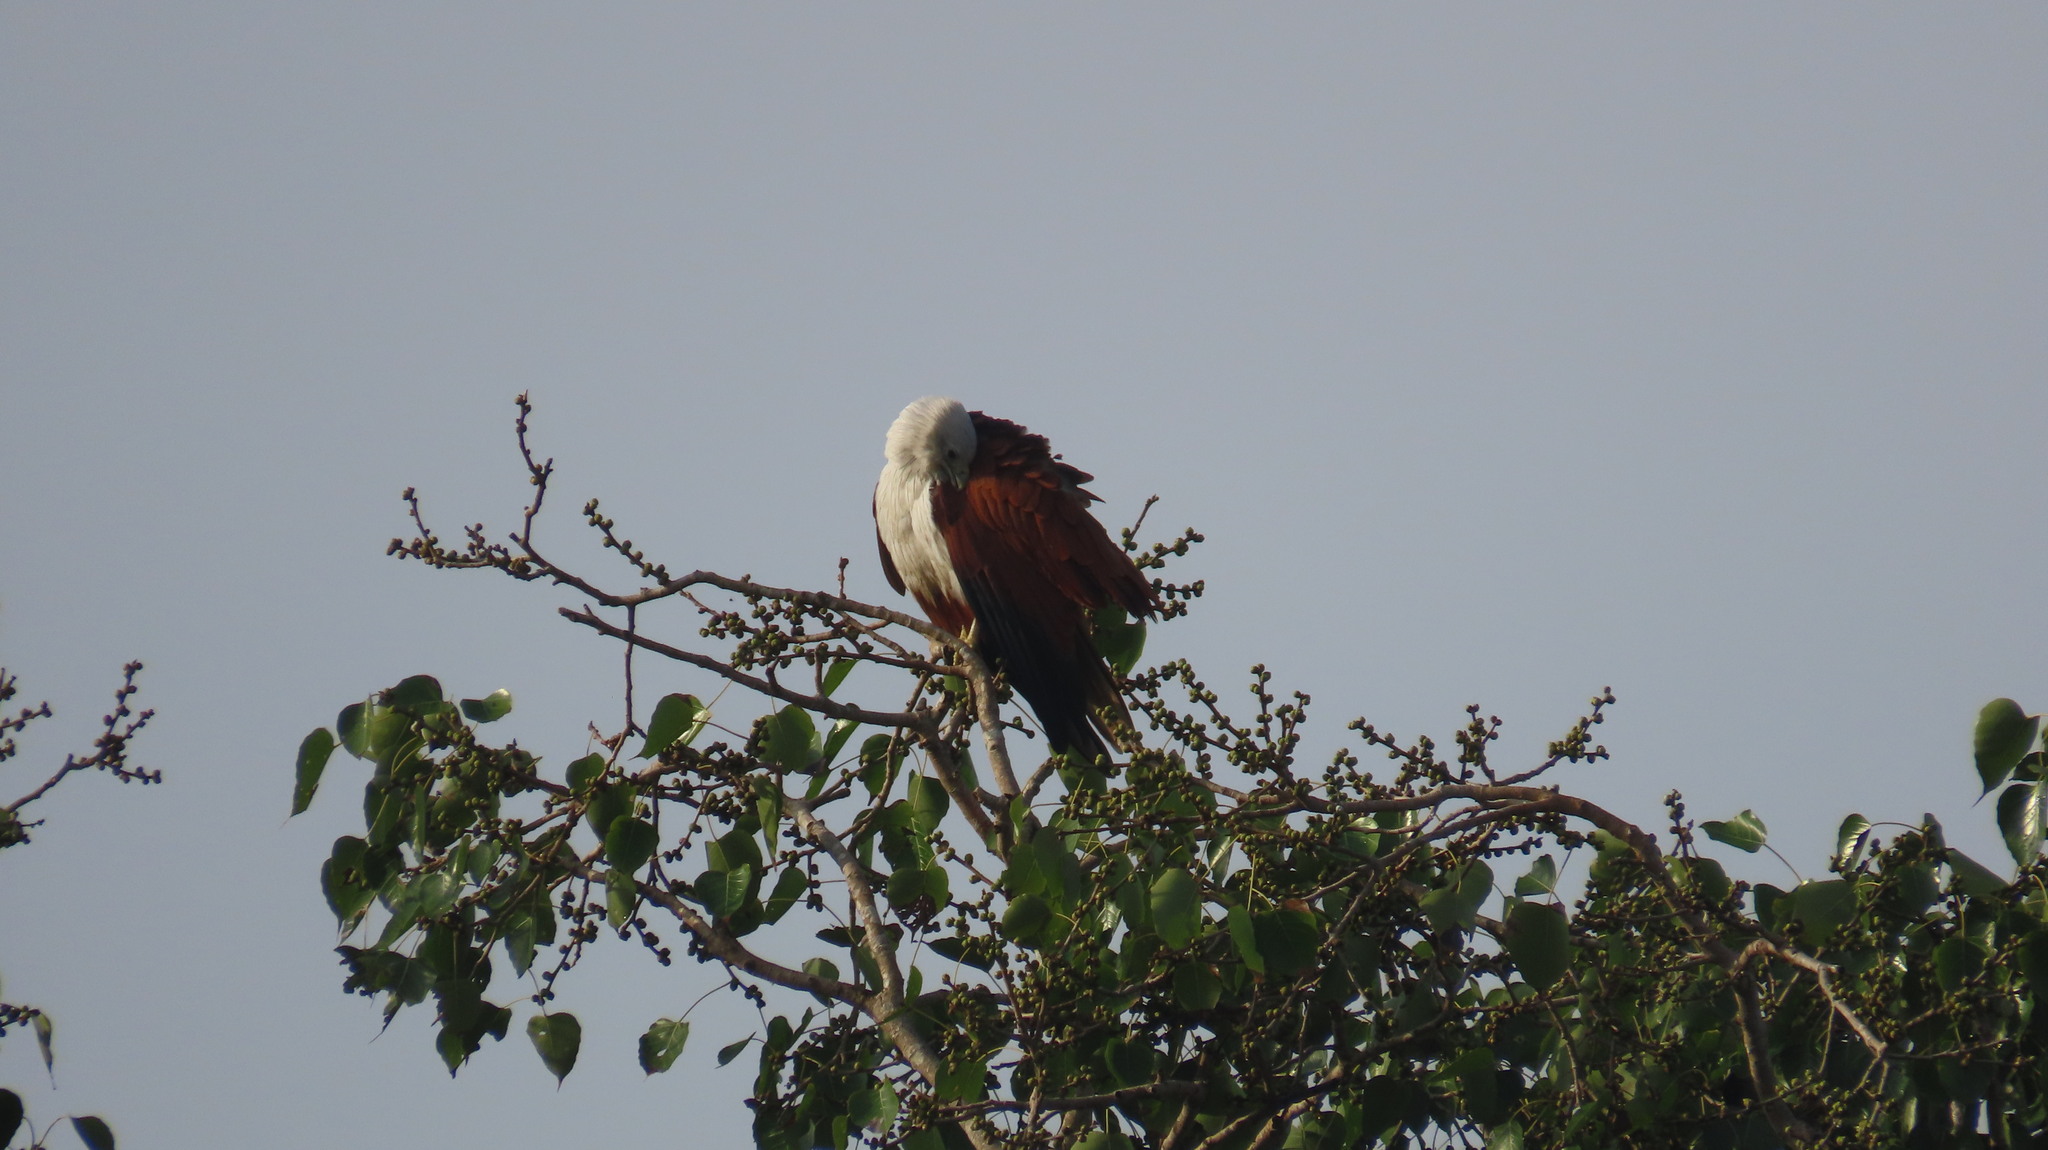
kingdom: Animalia
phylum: Chordata
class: Aves
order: Accipitriformes
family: Accipitridae
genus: Haliastur
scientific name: Haliastur indus
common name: Brahminy kite
